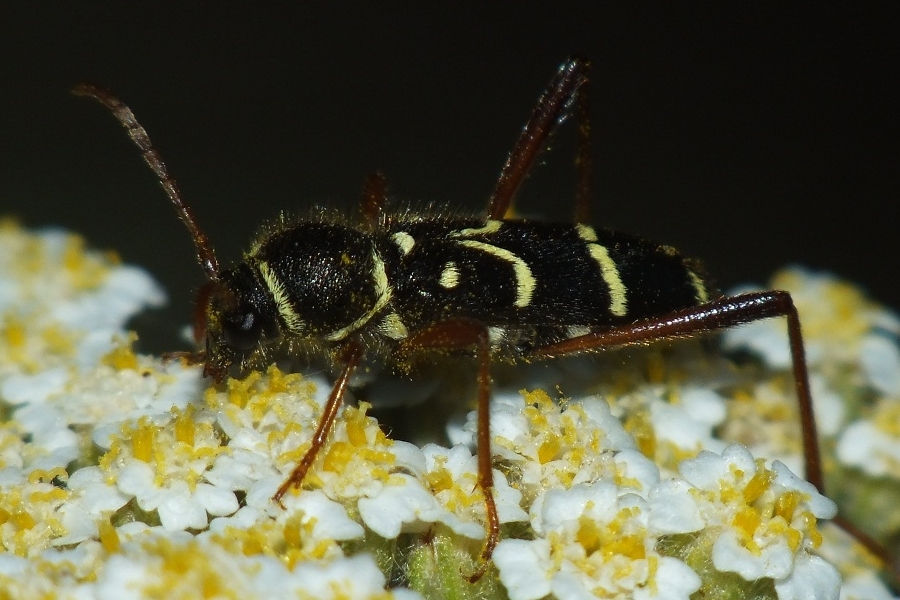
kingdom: Animalia
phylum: Arthropoda
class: Insecta
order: Coleoptera
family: Cerambycidae
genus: Clytus
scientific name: Clytus rhamni
